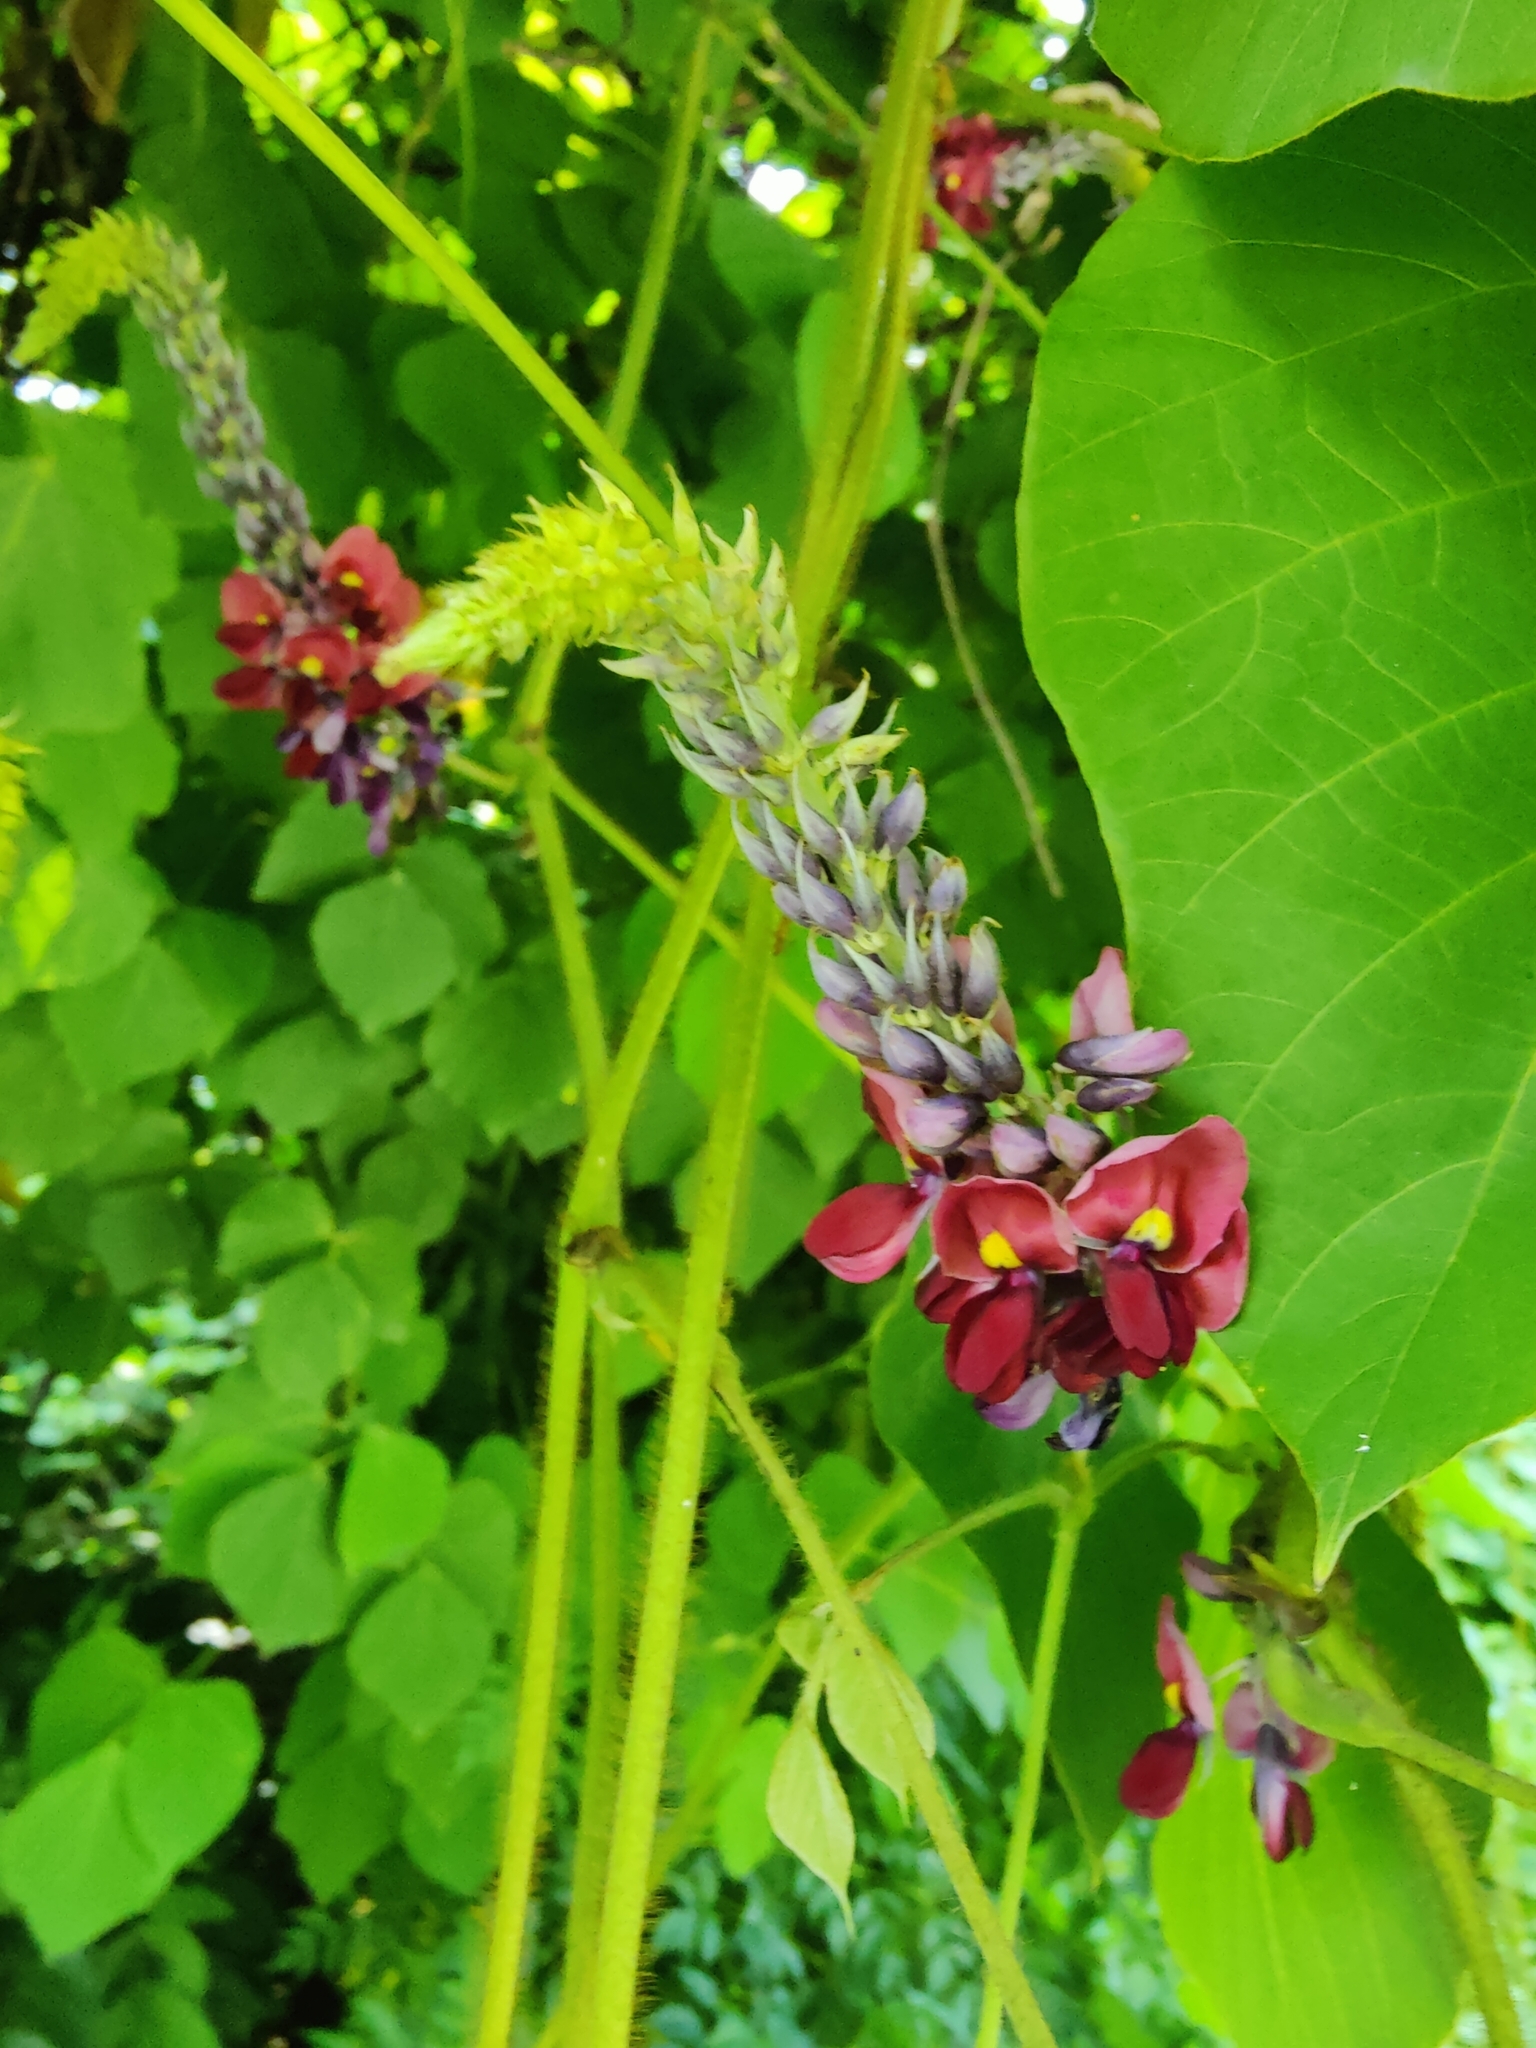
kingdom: Plantae
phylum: Tracheophyta
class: Magnoliopsida
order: Fabales
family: Fabaceae
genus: Pueraria
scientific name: Pueraria montana
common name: Kudzu
